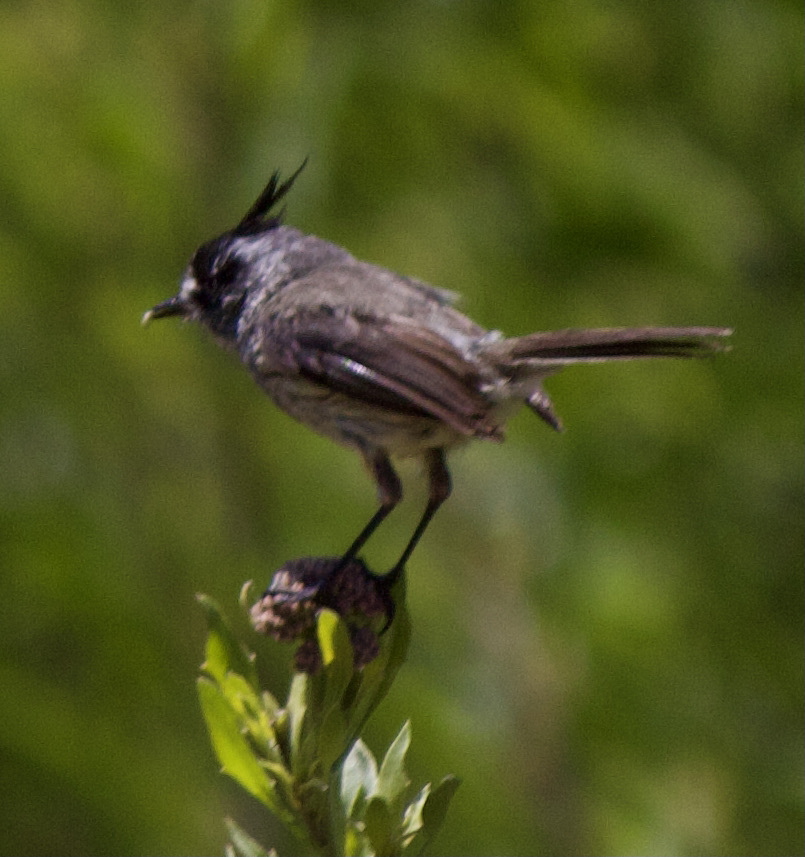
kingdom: Animalia
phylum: Chordata
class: Aves
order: Passeriformes
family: Tyrannidae
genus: Anairetes
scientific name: Anairetes parulus
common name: Tufted tit-tyrant
